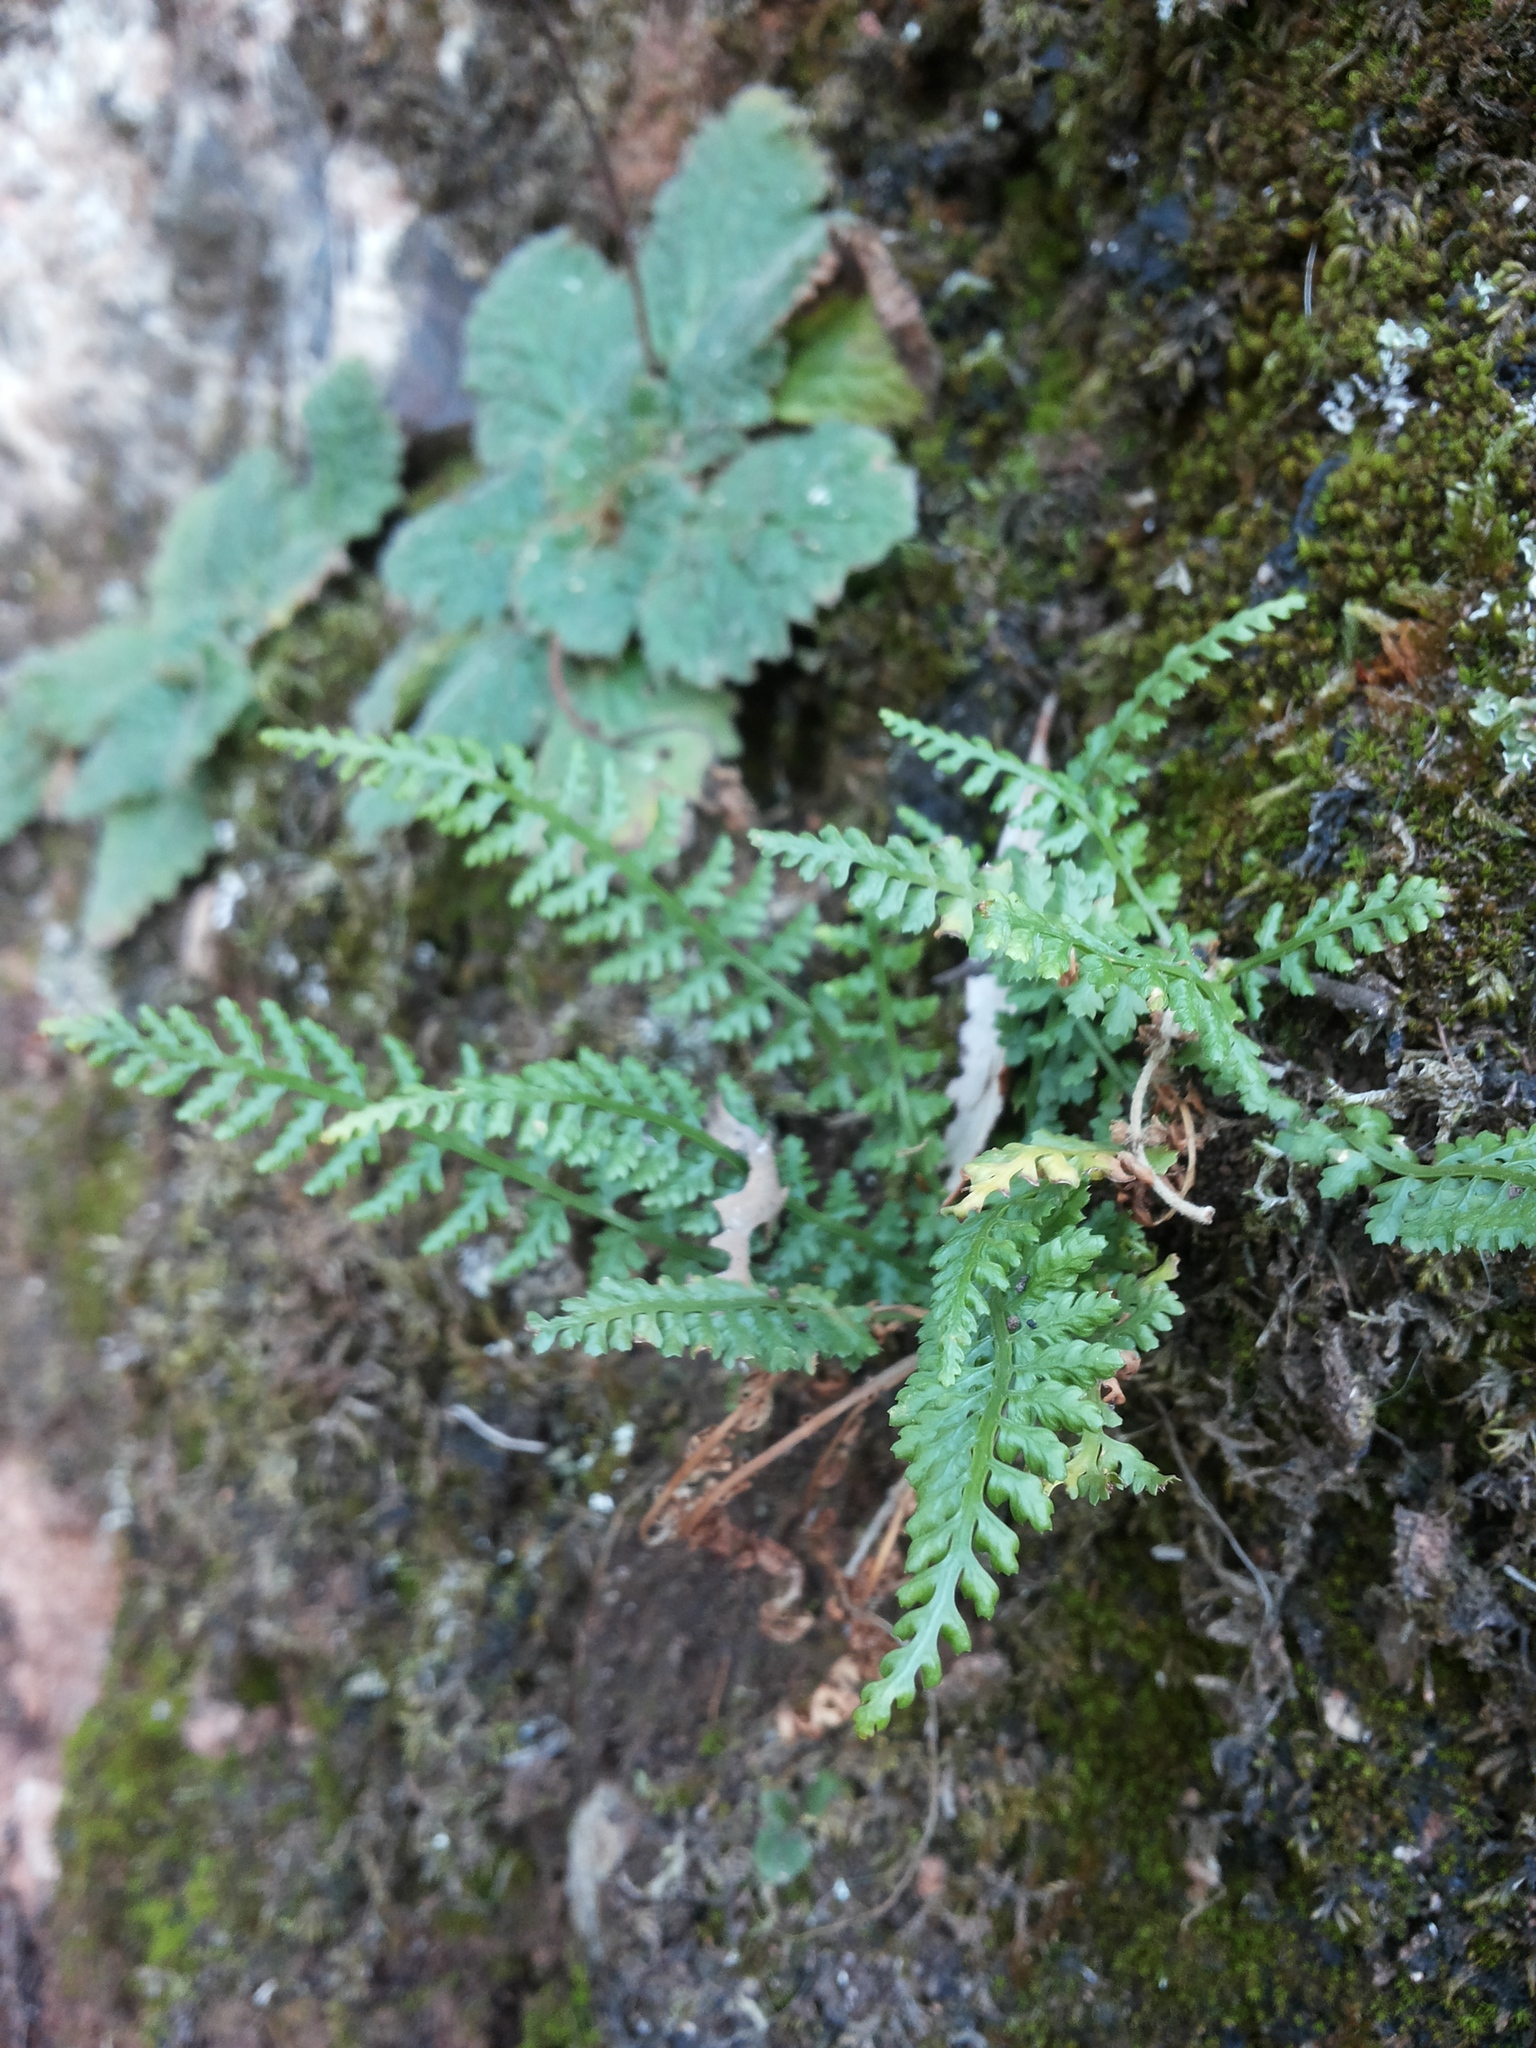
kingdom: Plantae
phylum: Tracheophyta
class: Polypodiopsida
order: Polypodiales
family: Aspleniaceae
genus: Asplenium
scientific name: Asplenium fontanum
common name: Fountain spleenwort
